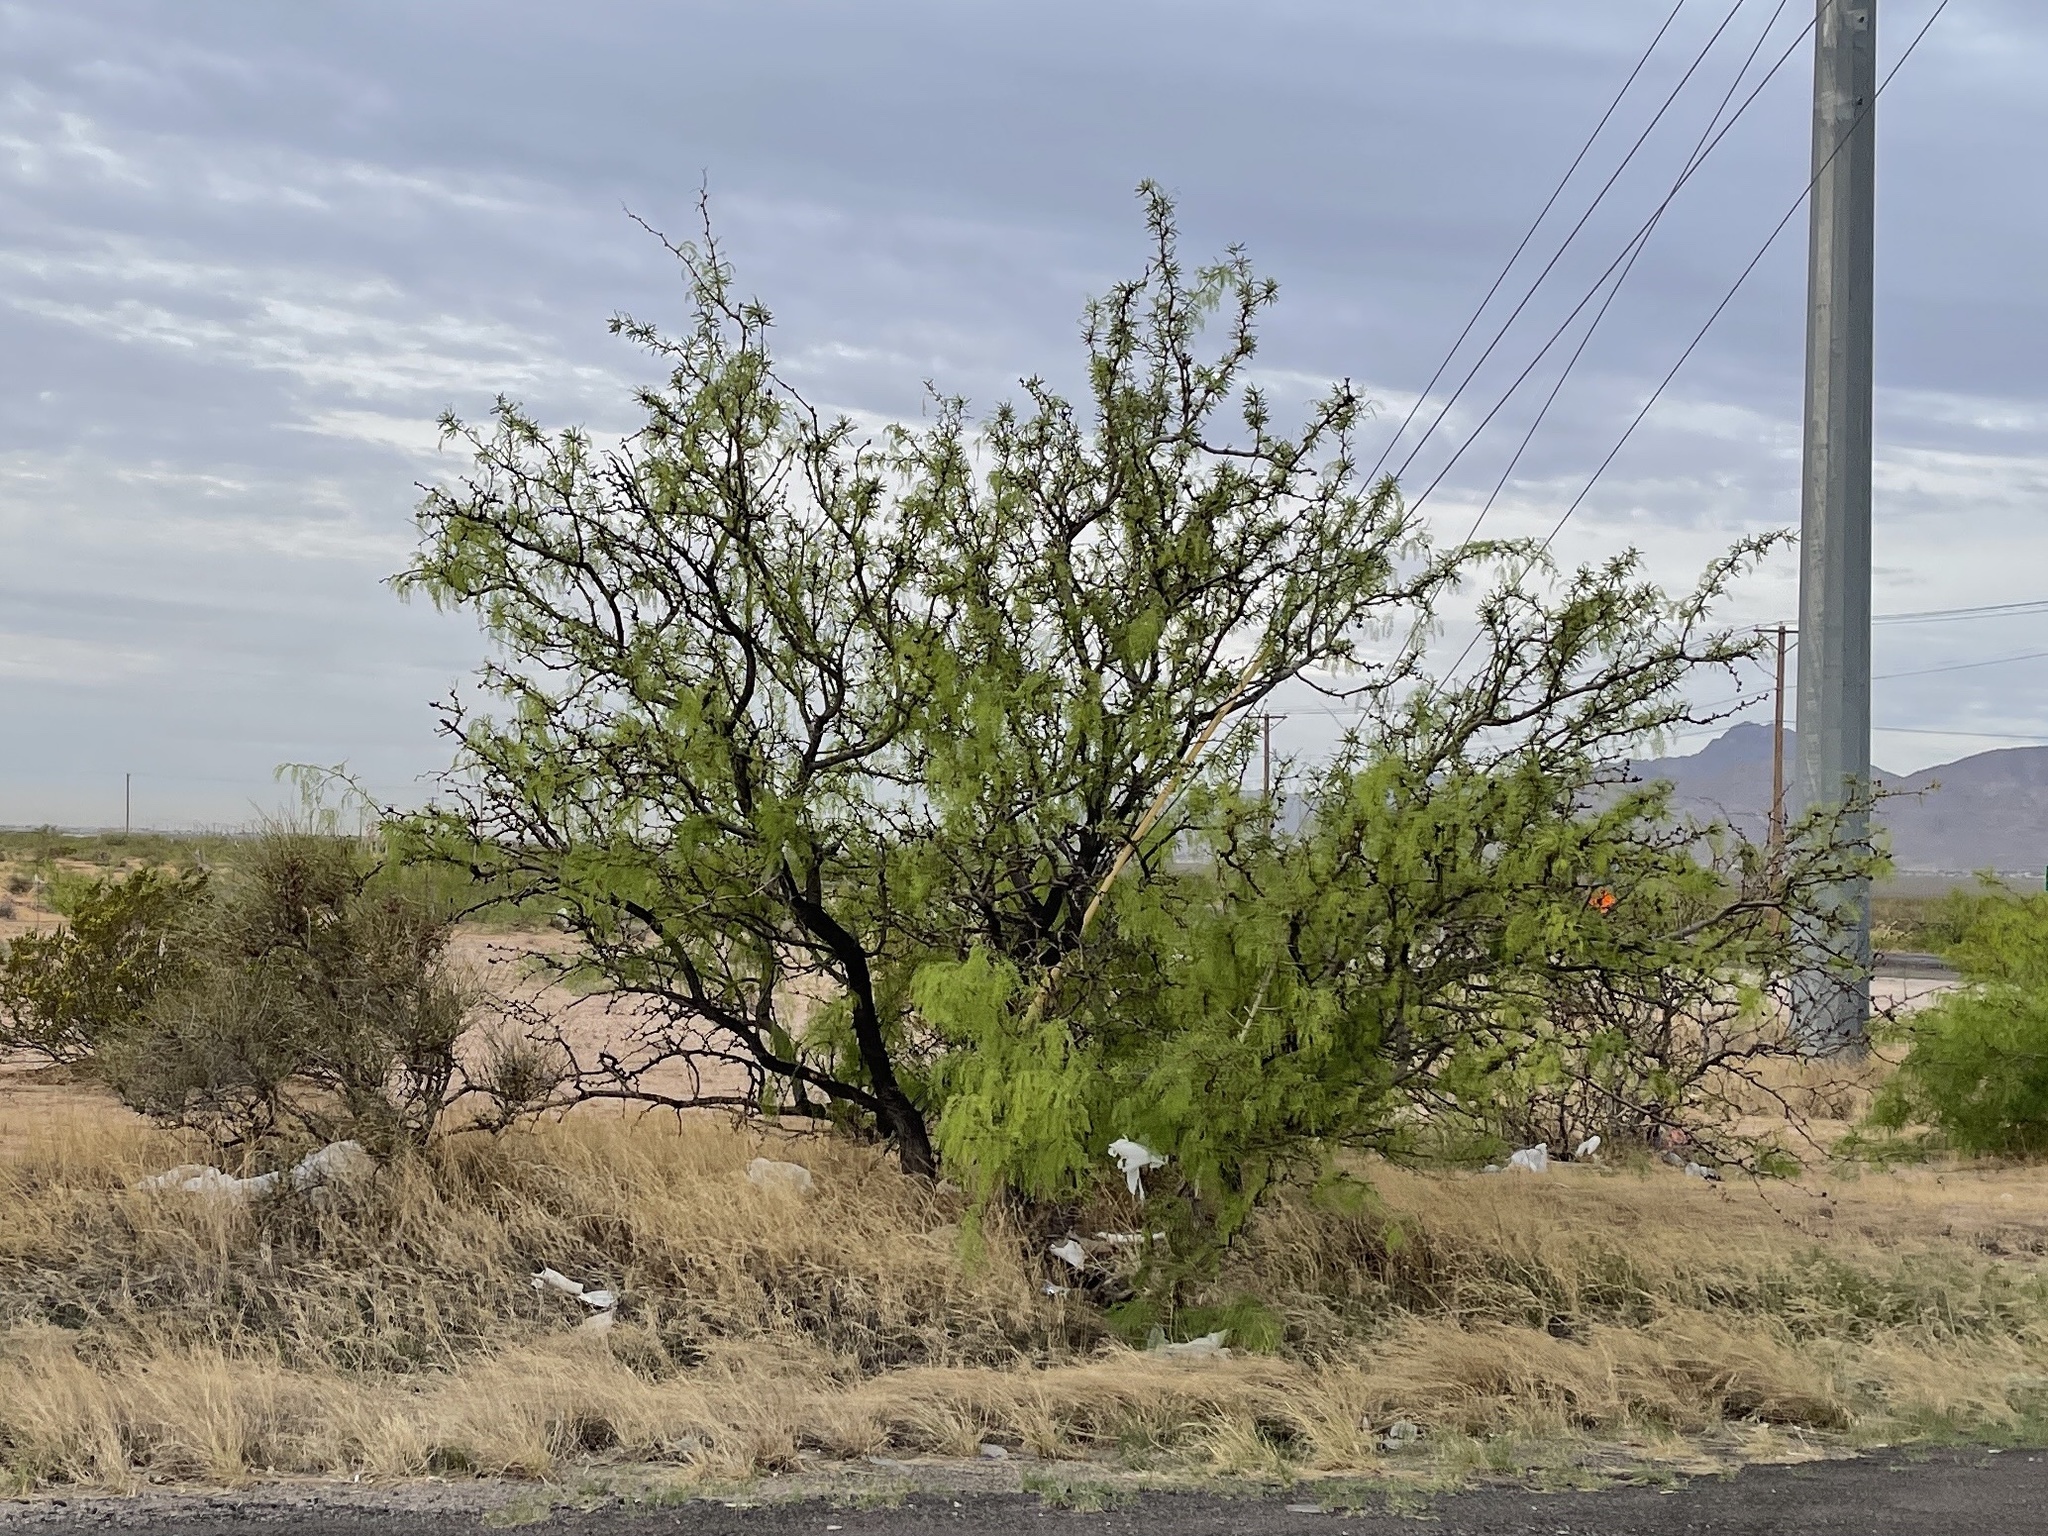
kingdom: Plantae
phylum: Tracheophyta
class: Magnoliopsida
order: Fabales
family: Fabaceae
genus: Prosopis
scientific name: Prosopis glandulosa
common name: Honey mesquite
